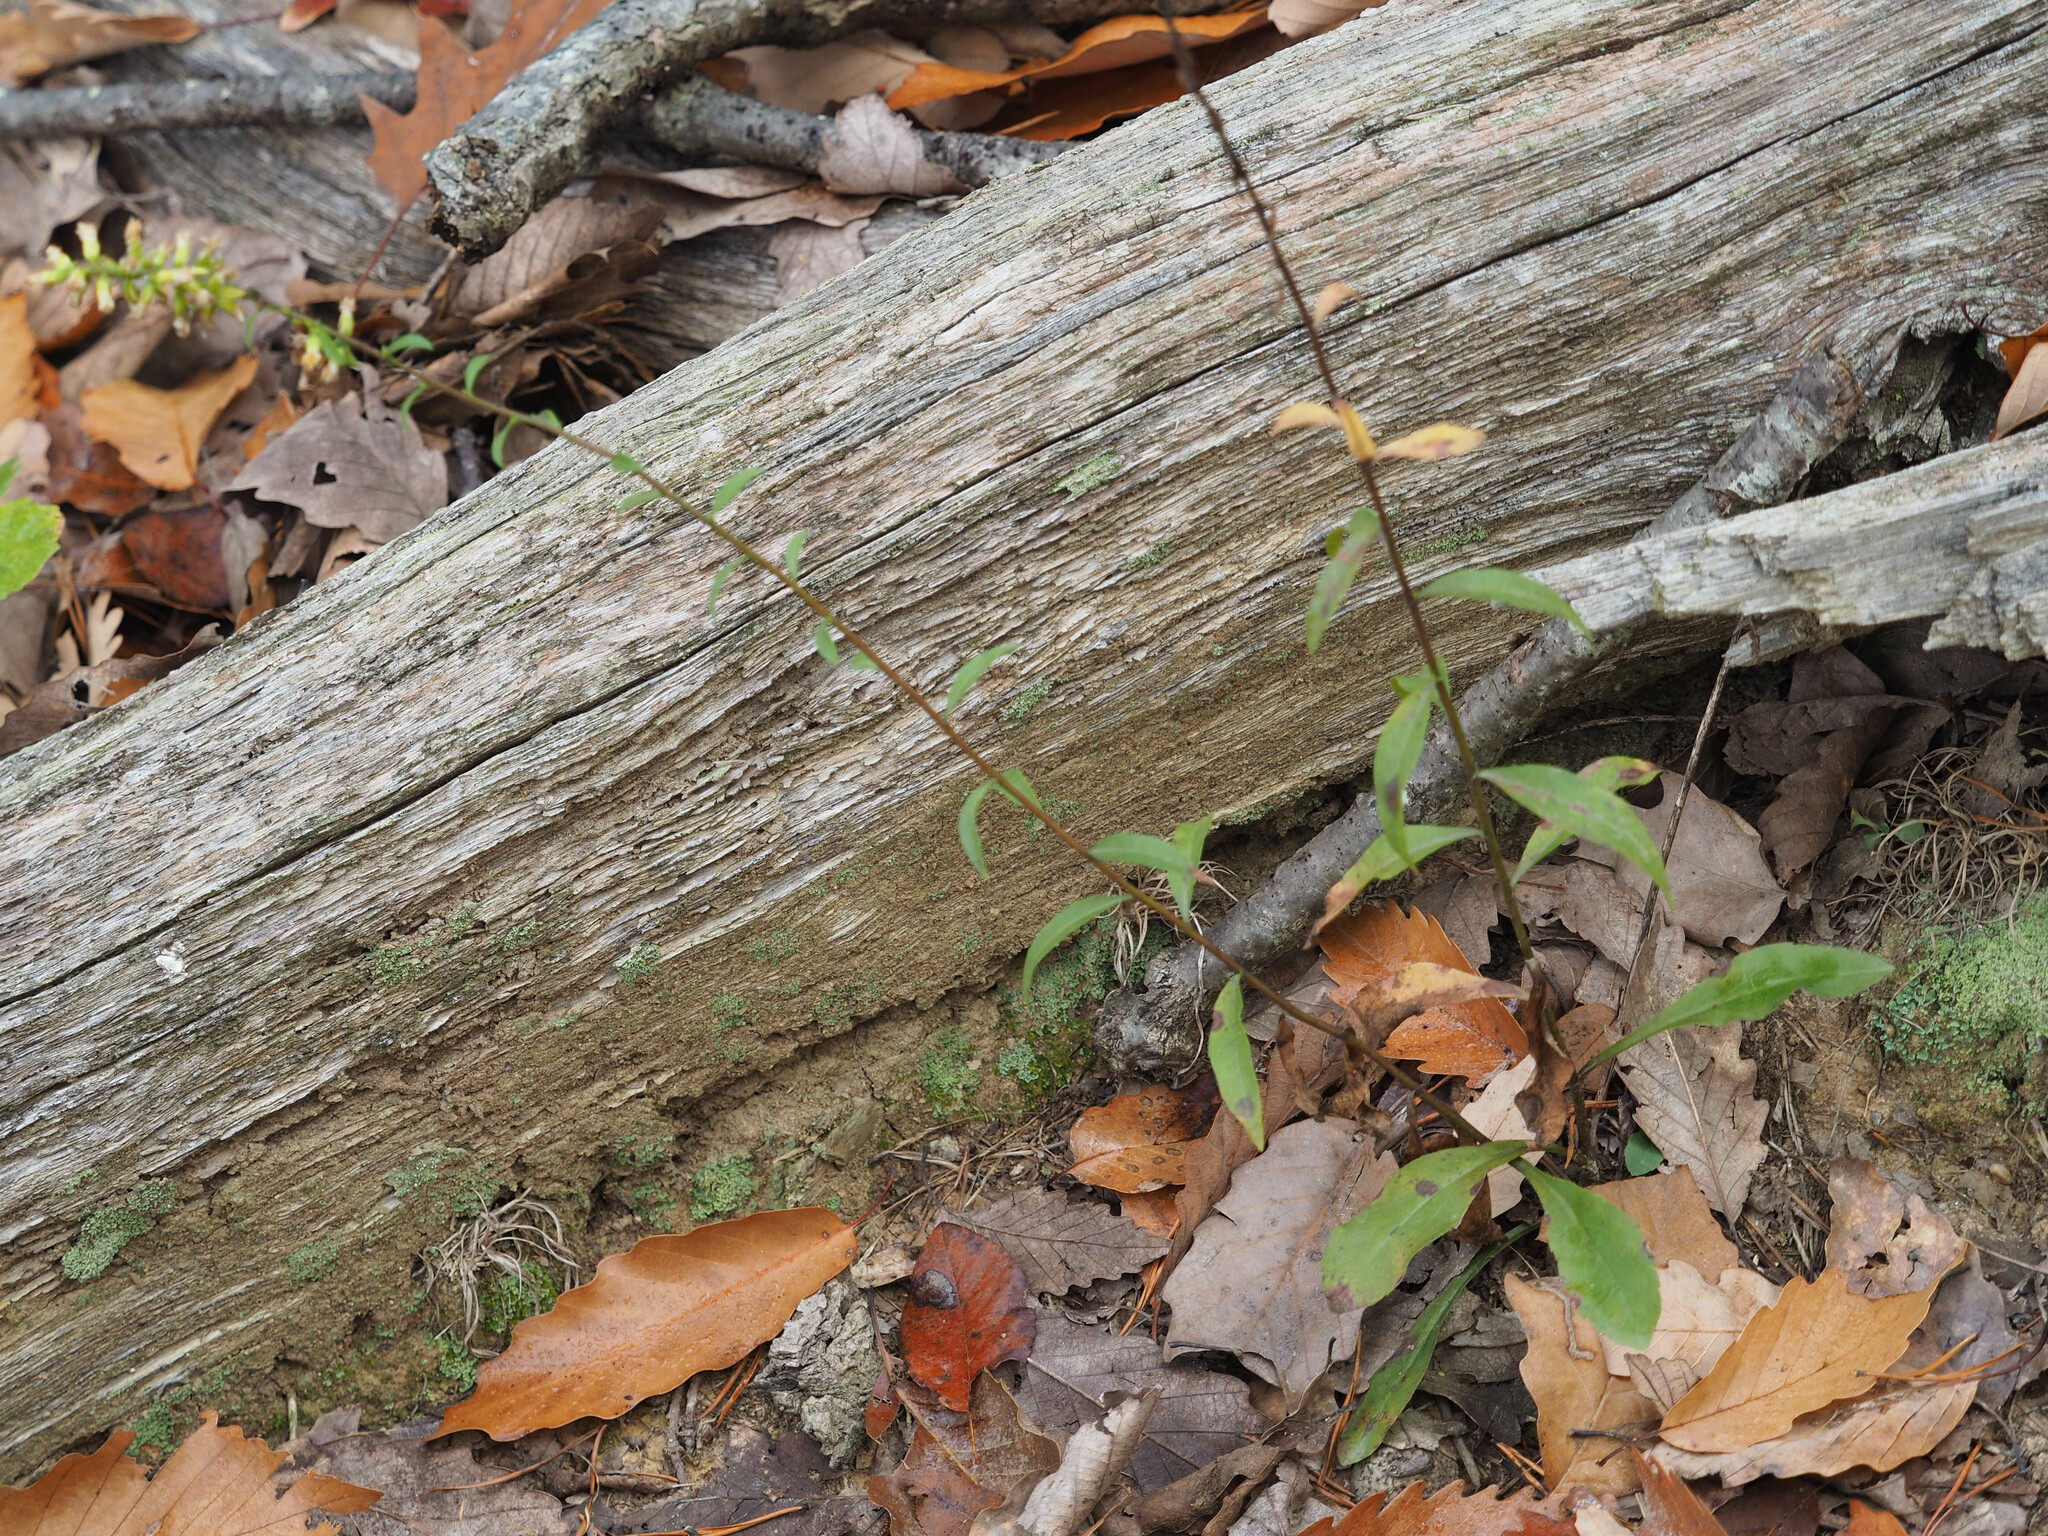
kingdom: Plantae
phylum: Tracheophyta
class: Magnoliopsida
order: Asterales
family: Asteraceae
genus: Solidago
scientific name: Solidago erecta
